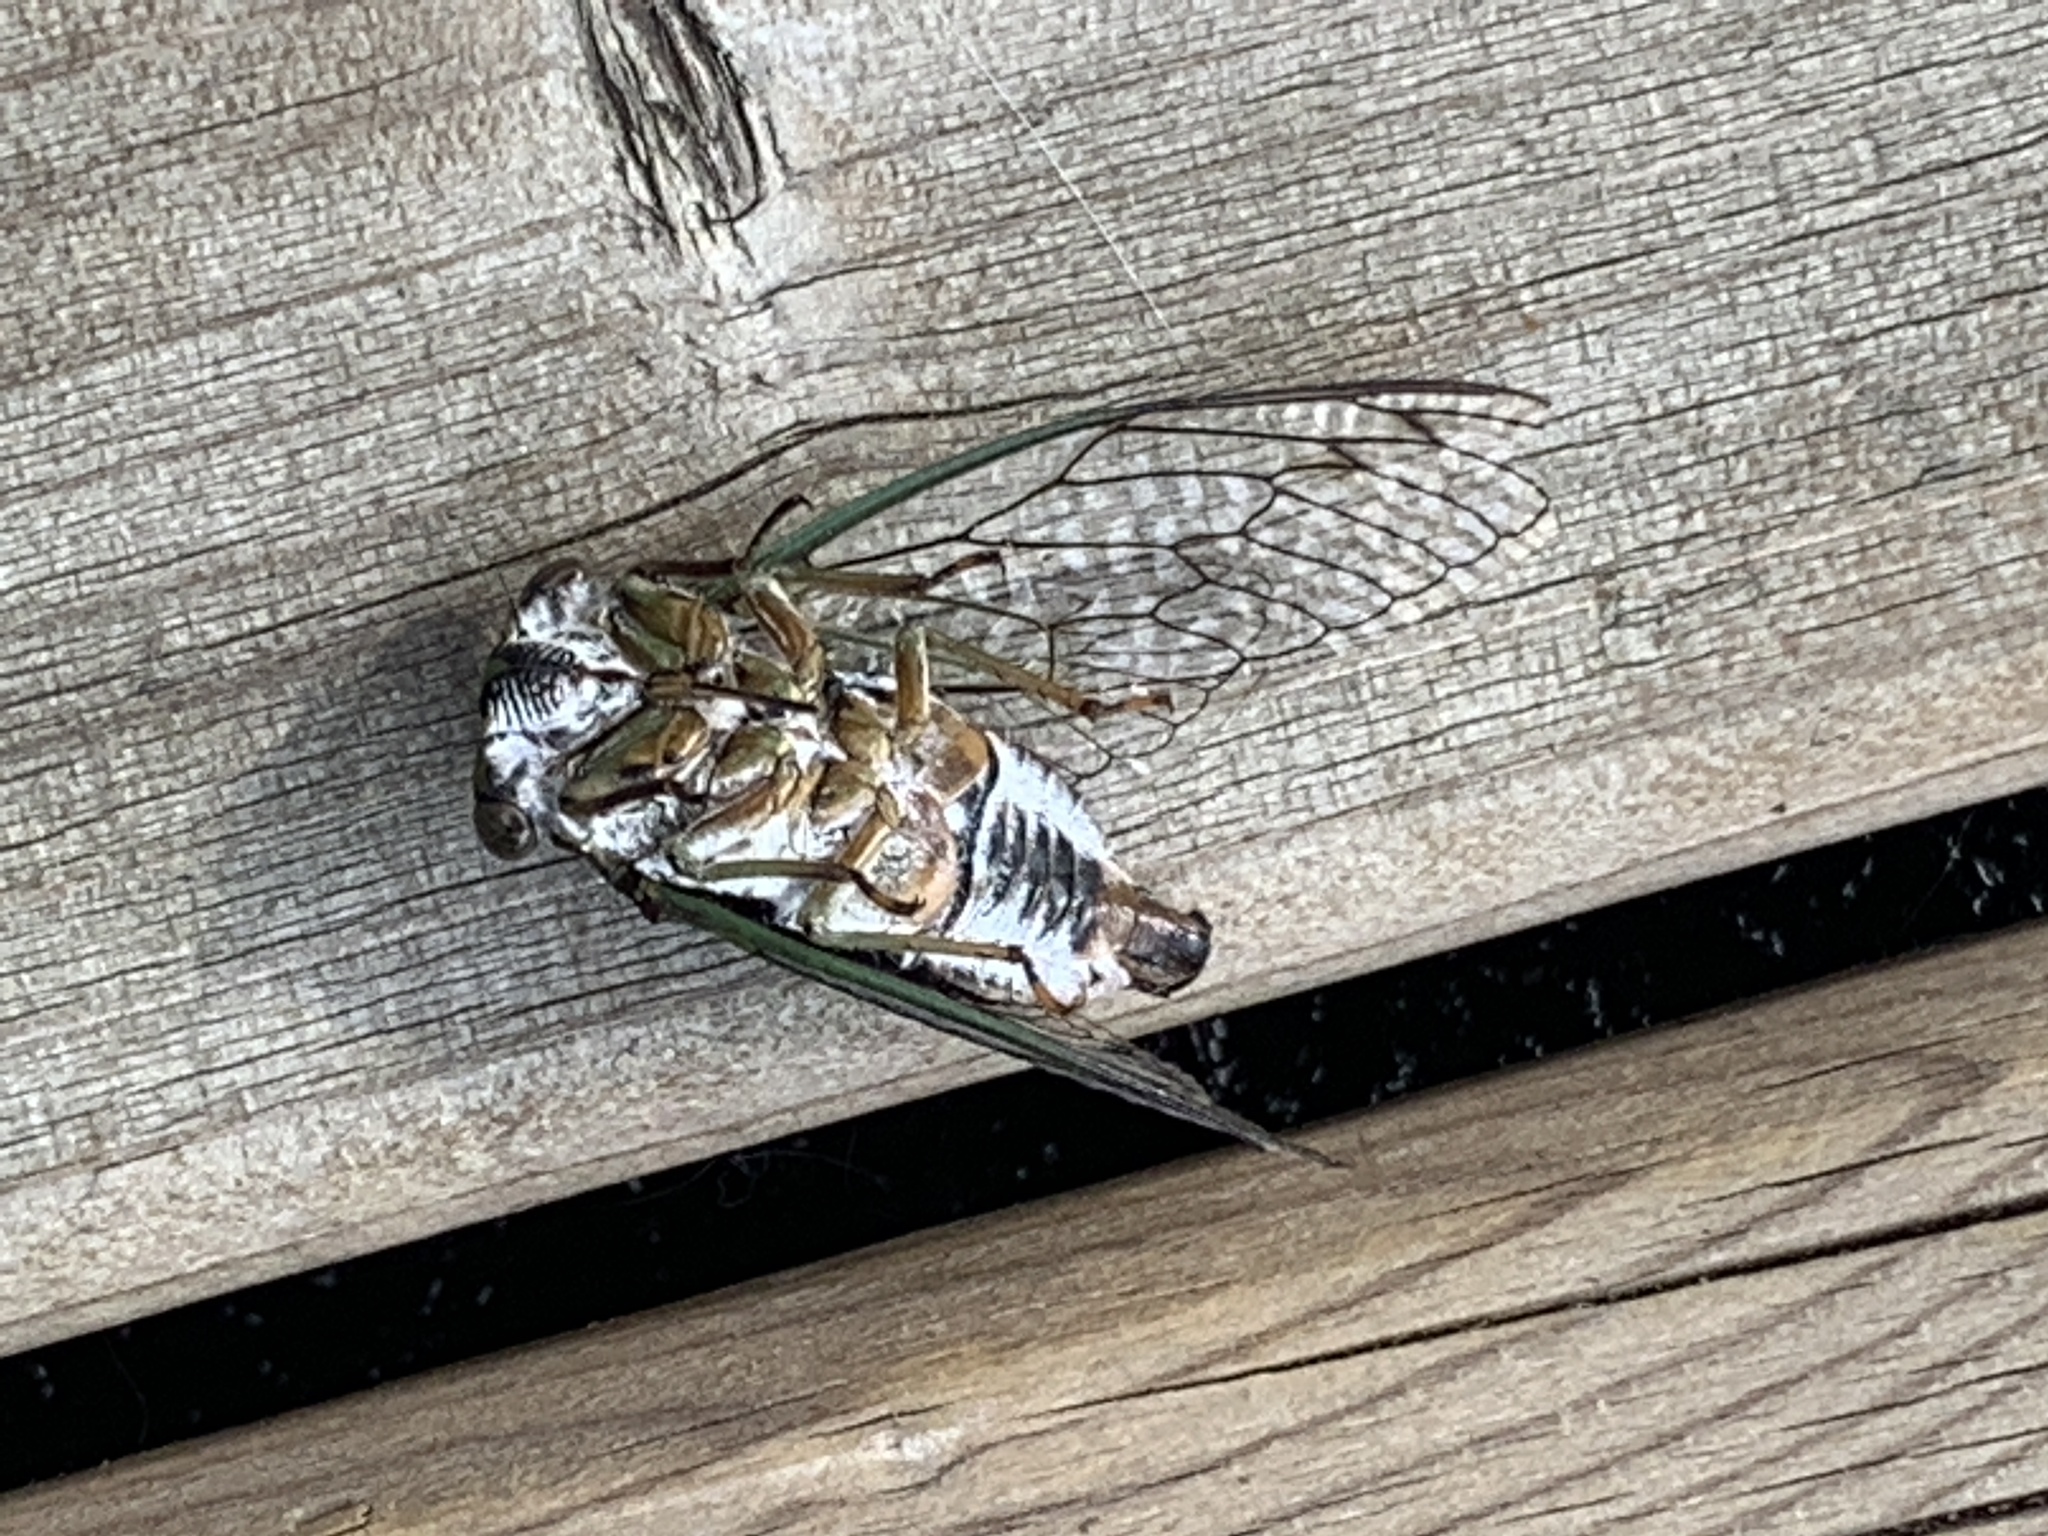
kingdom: Animalia
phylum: Arthropoda
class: Insecta
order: Hemiptera
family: Cicadidae
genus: Neotibicen
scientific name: Neotibicen canicularis
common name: God-day cicada
